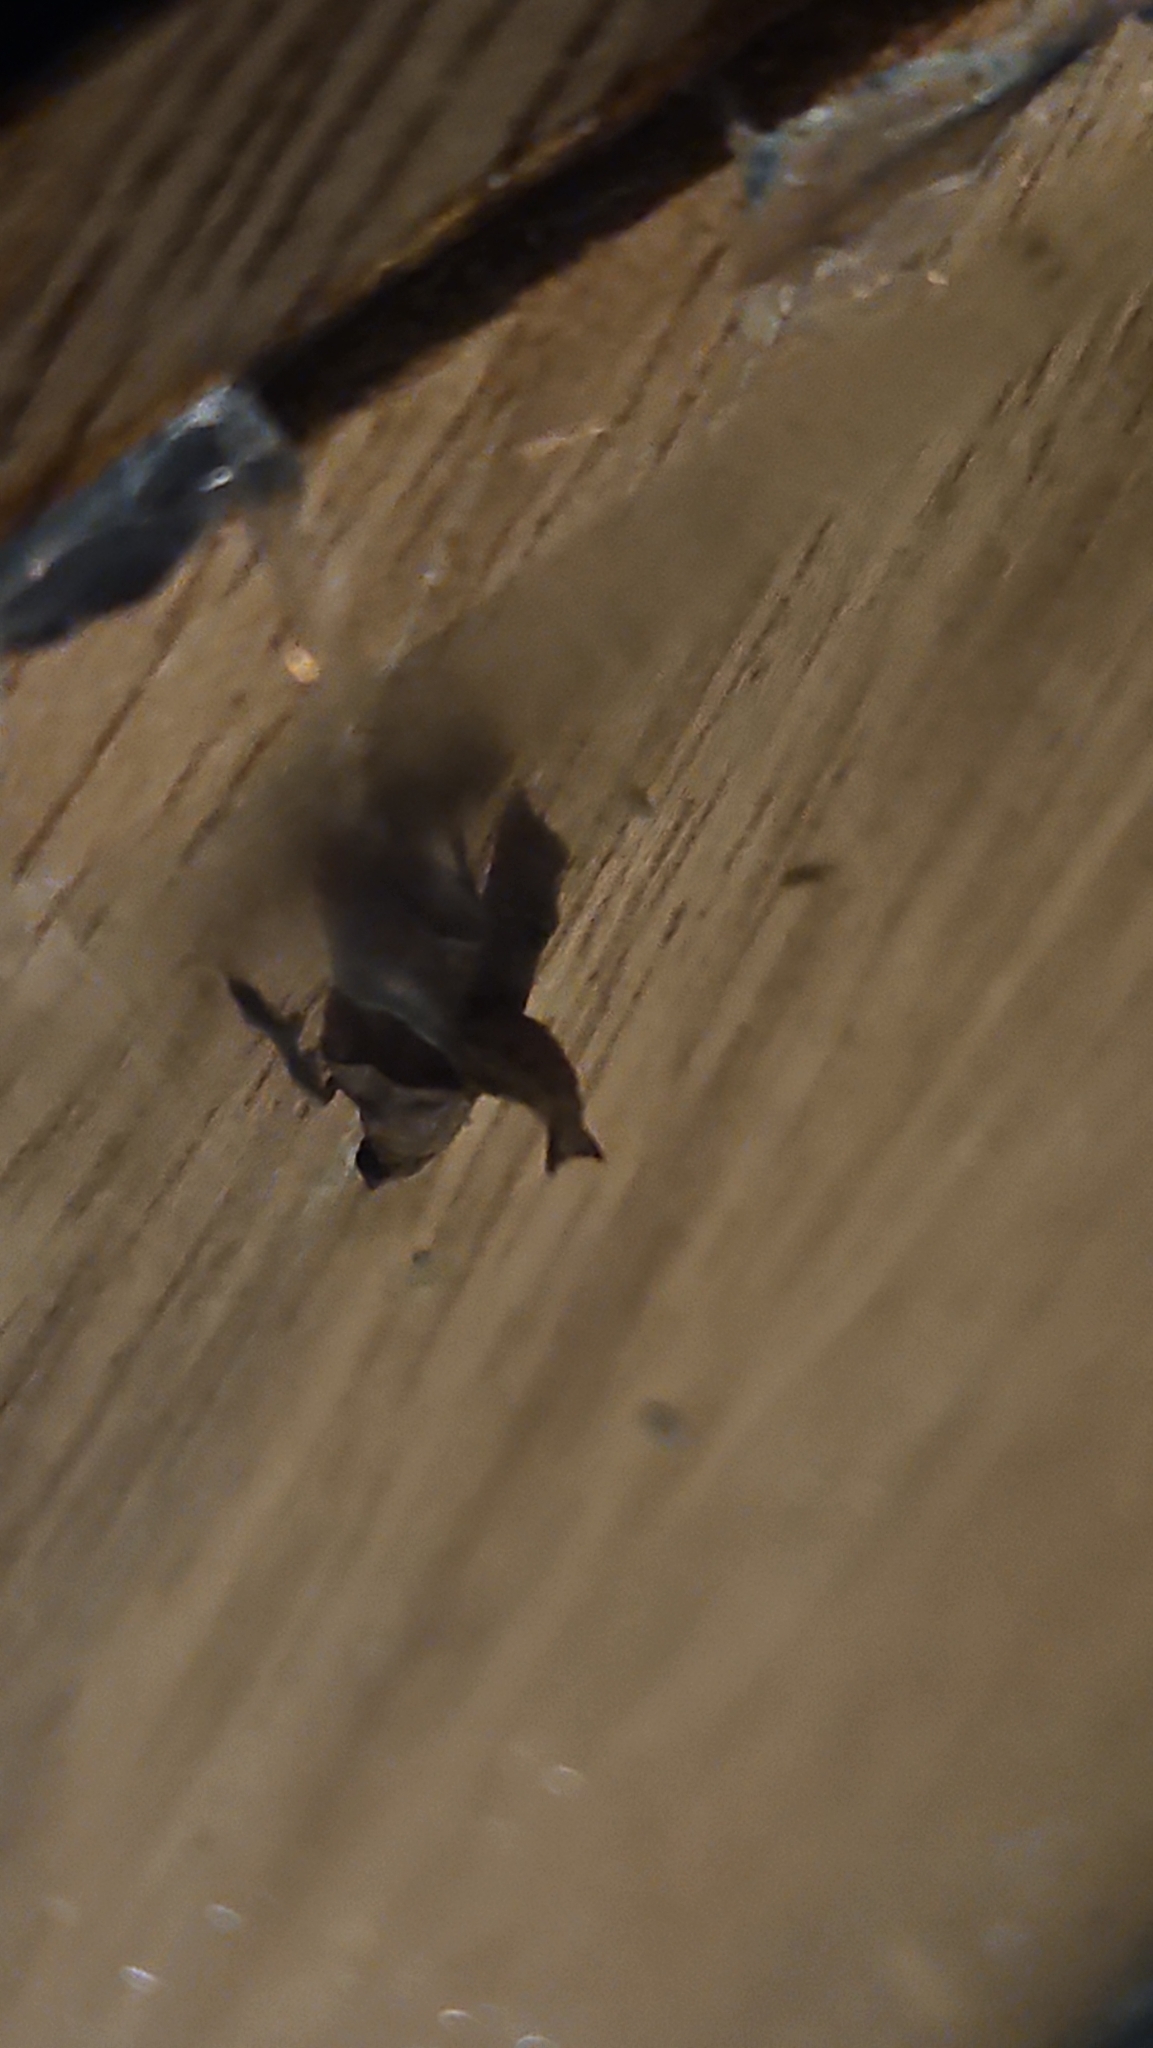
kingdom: Animalia
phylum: Arthropoda
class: Insecta
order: Lepidoptera
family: Pyralidae
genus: Tosale
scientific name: Tosale oviplagalis
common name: Dimorphic tosale moth
